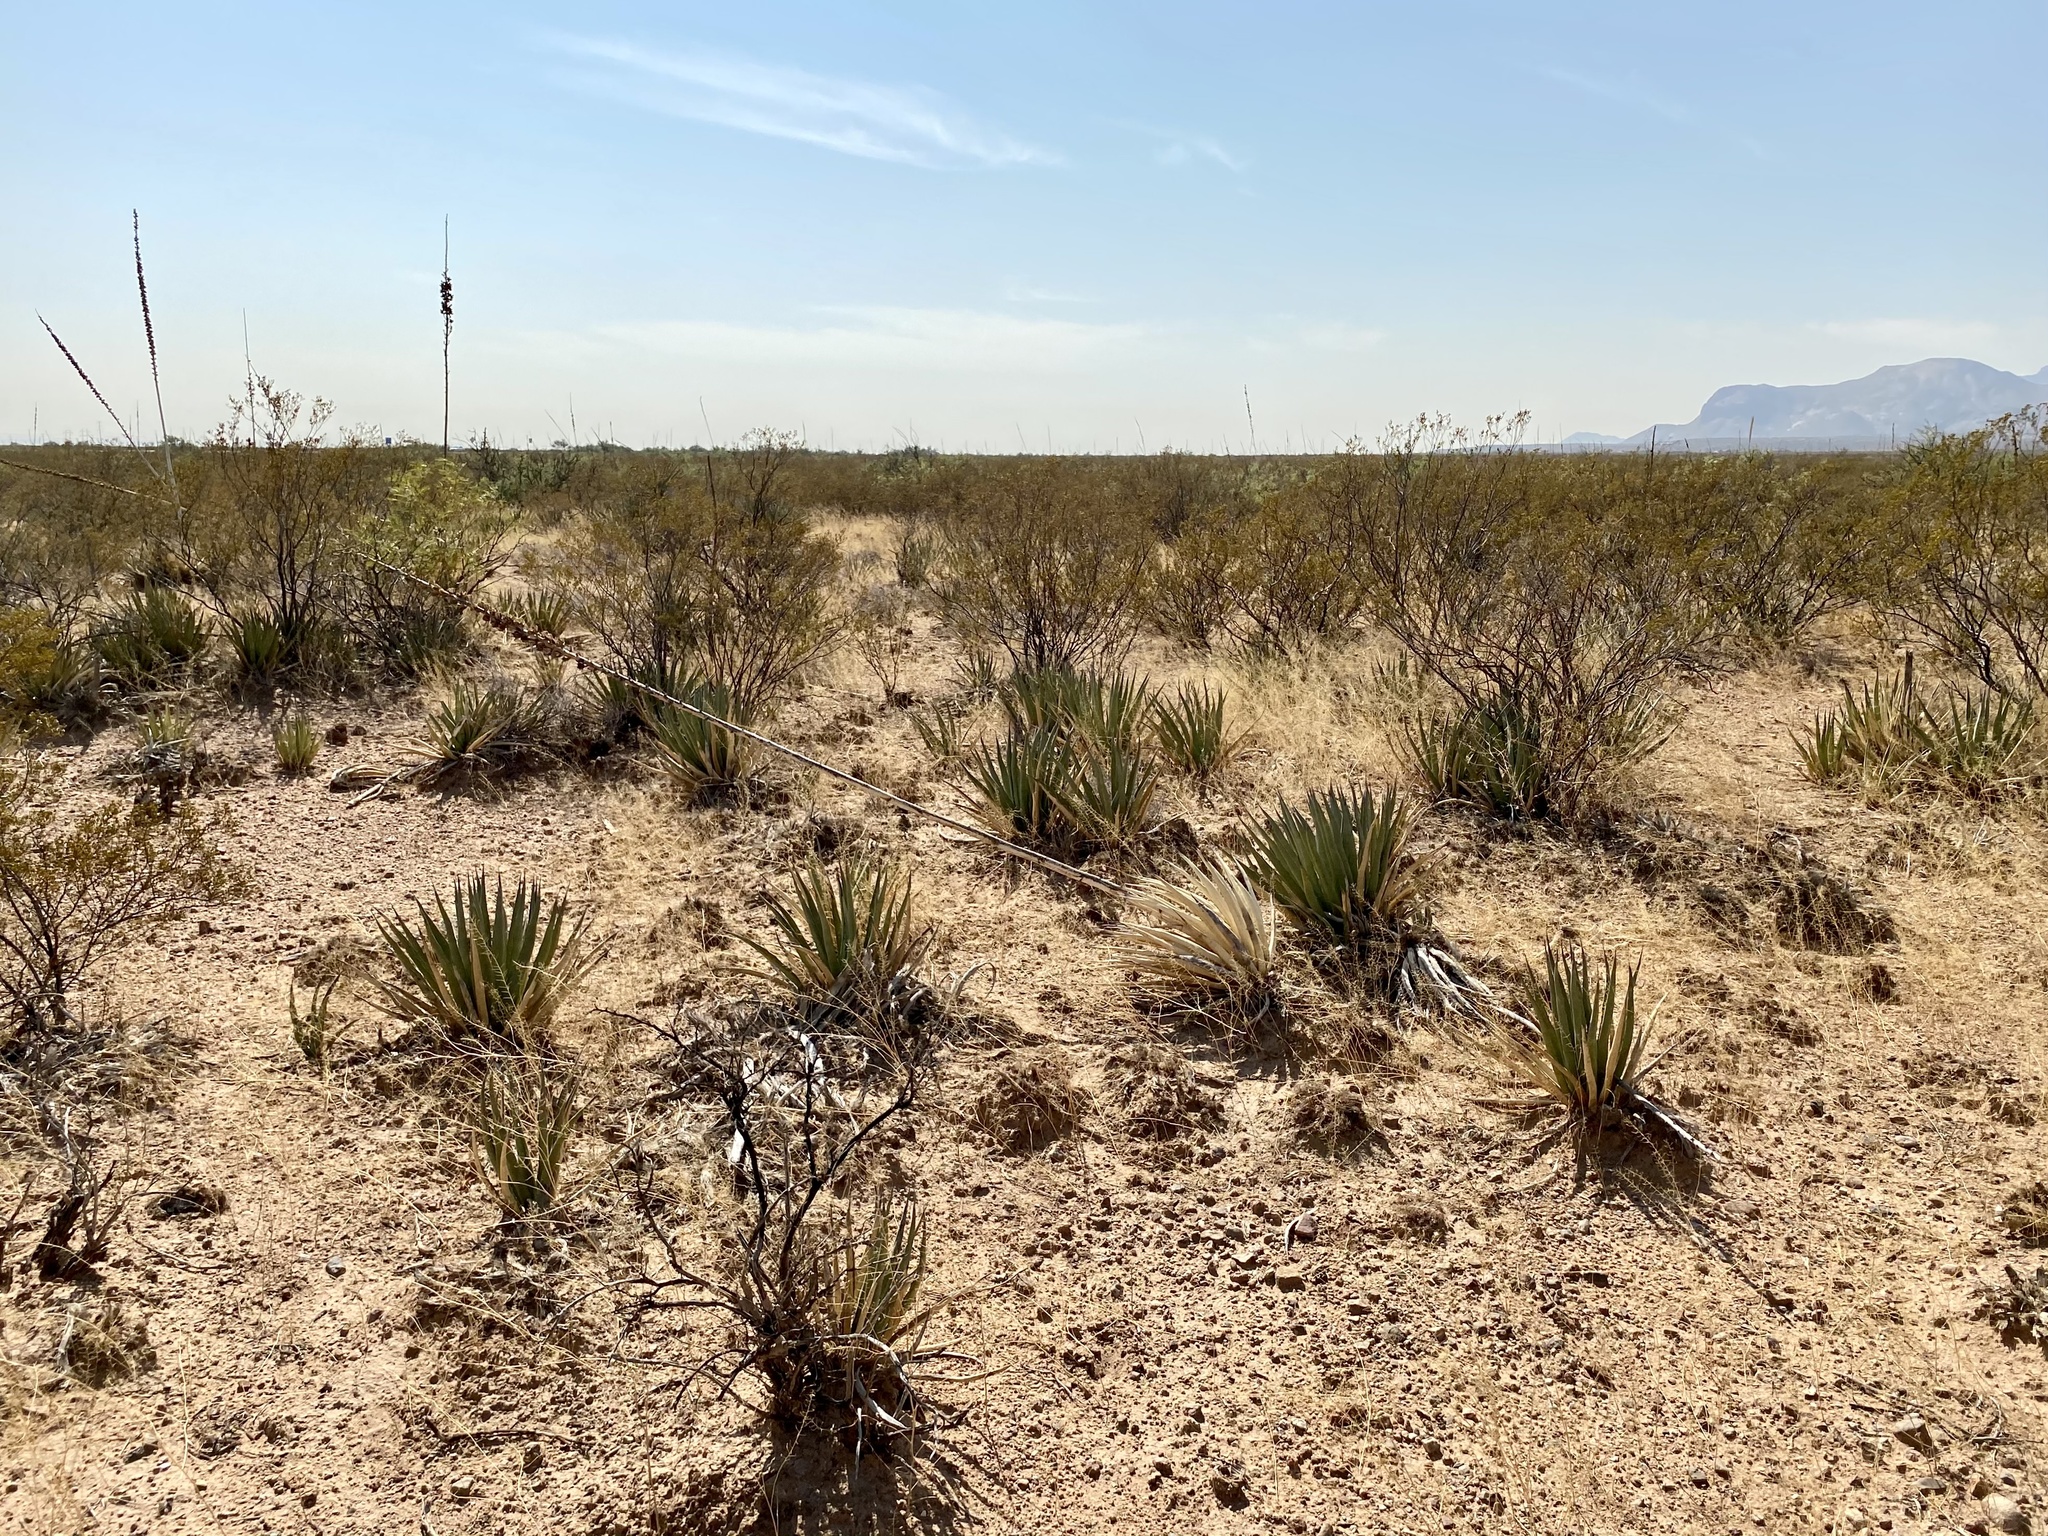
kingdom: Plantae
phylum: Tracheophyta
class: Liliopsida
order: Asparagales
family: Asparagaceae
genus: Agave
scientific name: Agave lechuguilla
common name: Lecheguilla agave
